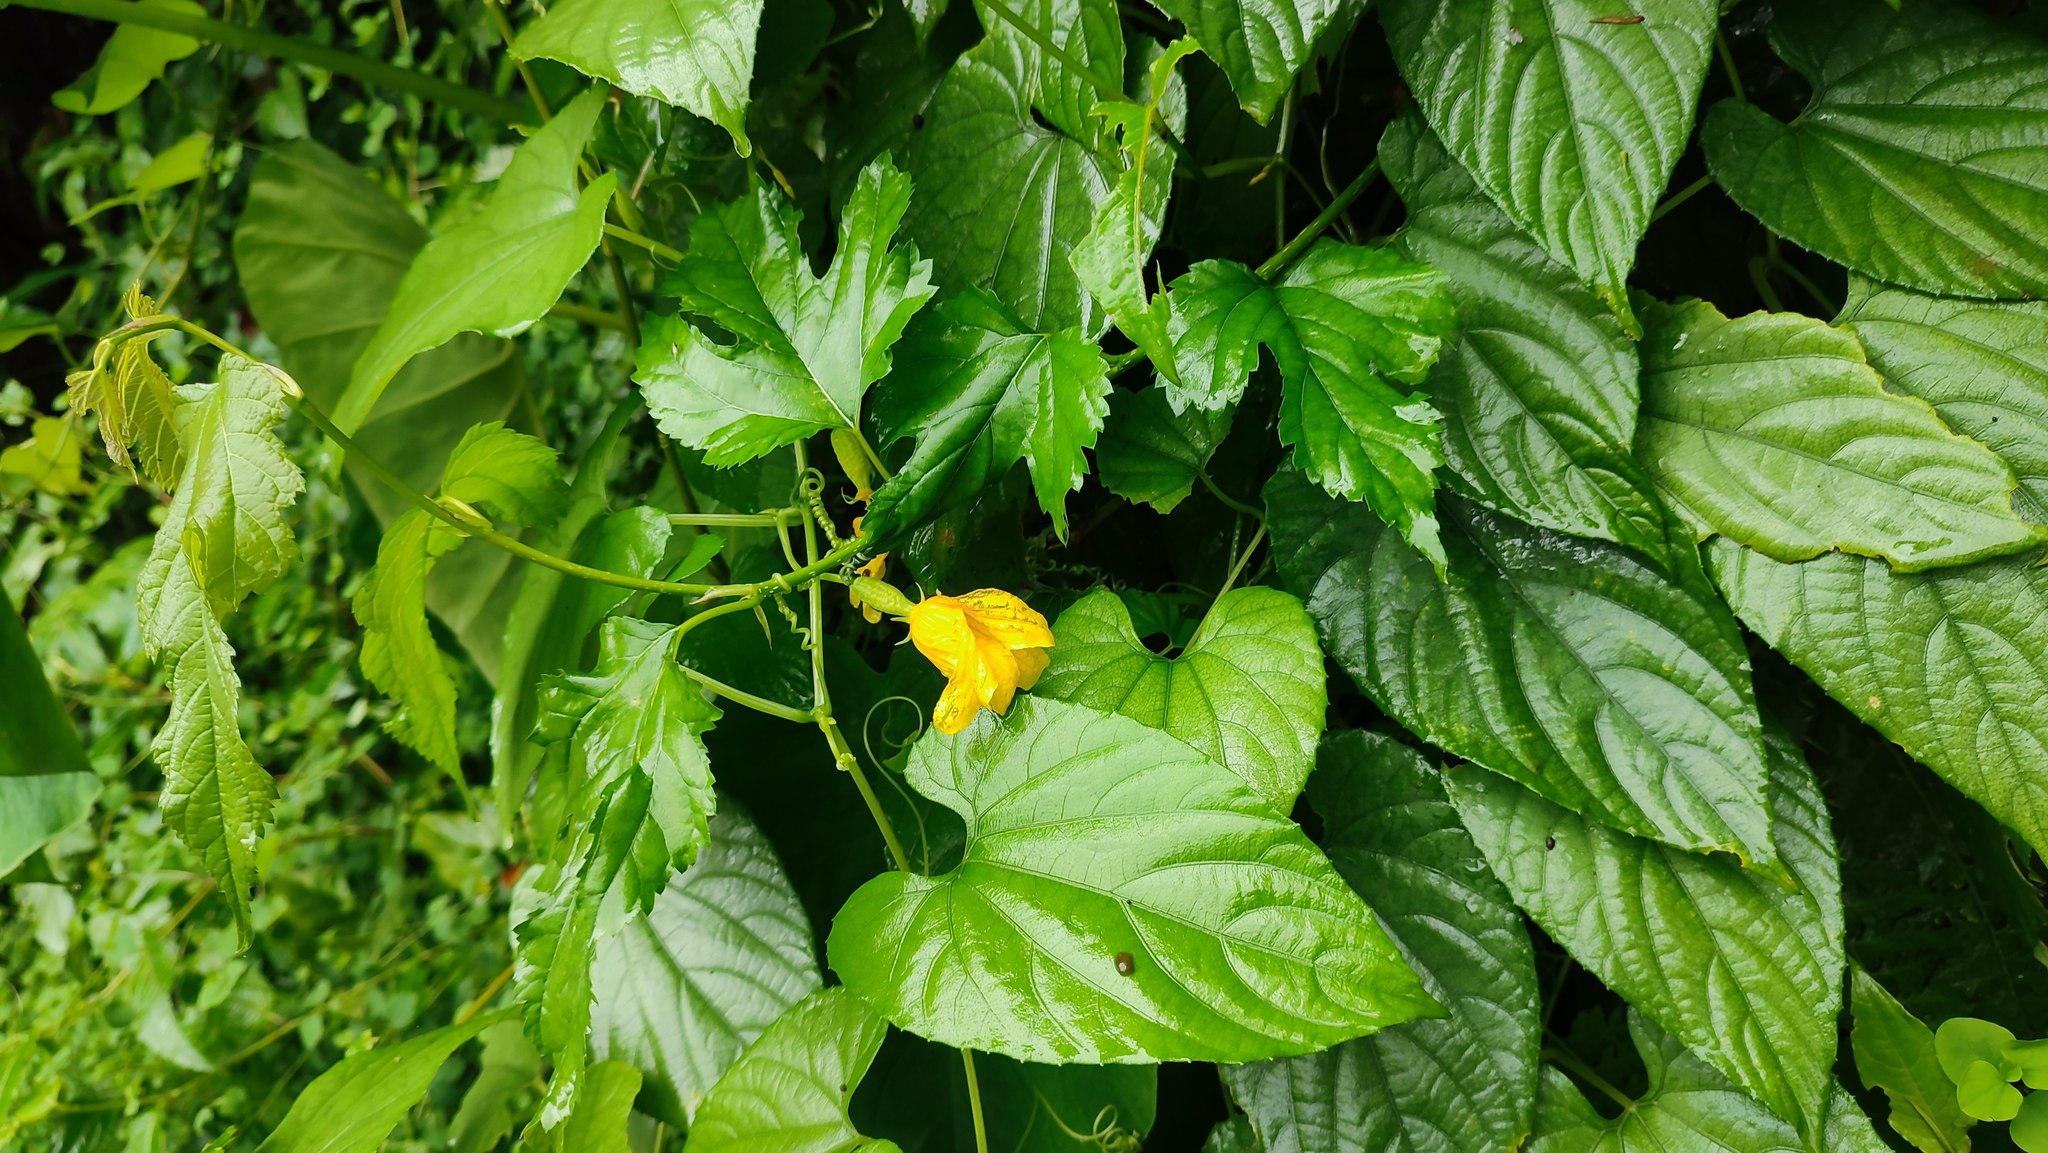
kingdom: Plantae
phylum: Tracheophyta
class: Magnoliopsida
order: Cucurbitales
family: Cucurbitaceae
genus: Thladiantha
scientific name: Thladiantha punctata
